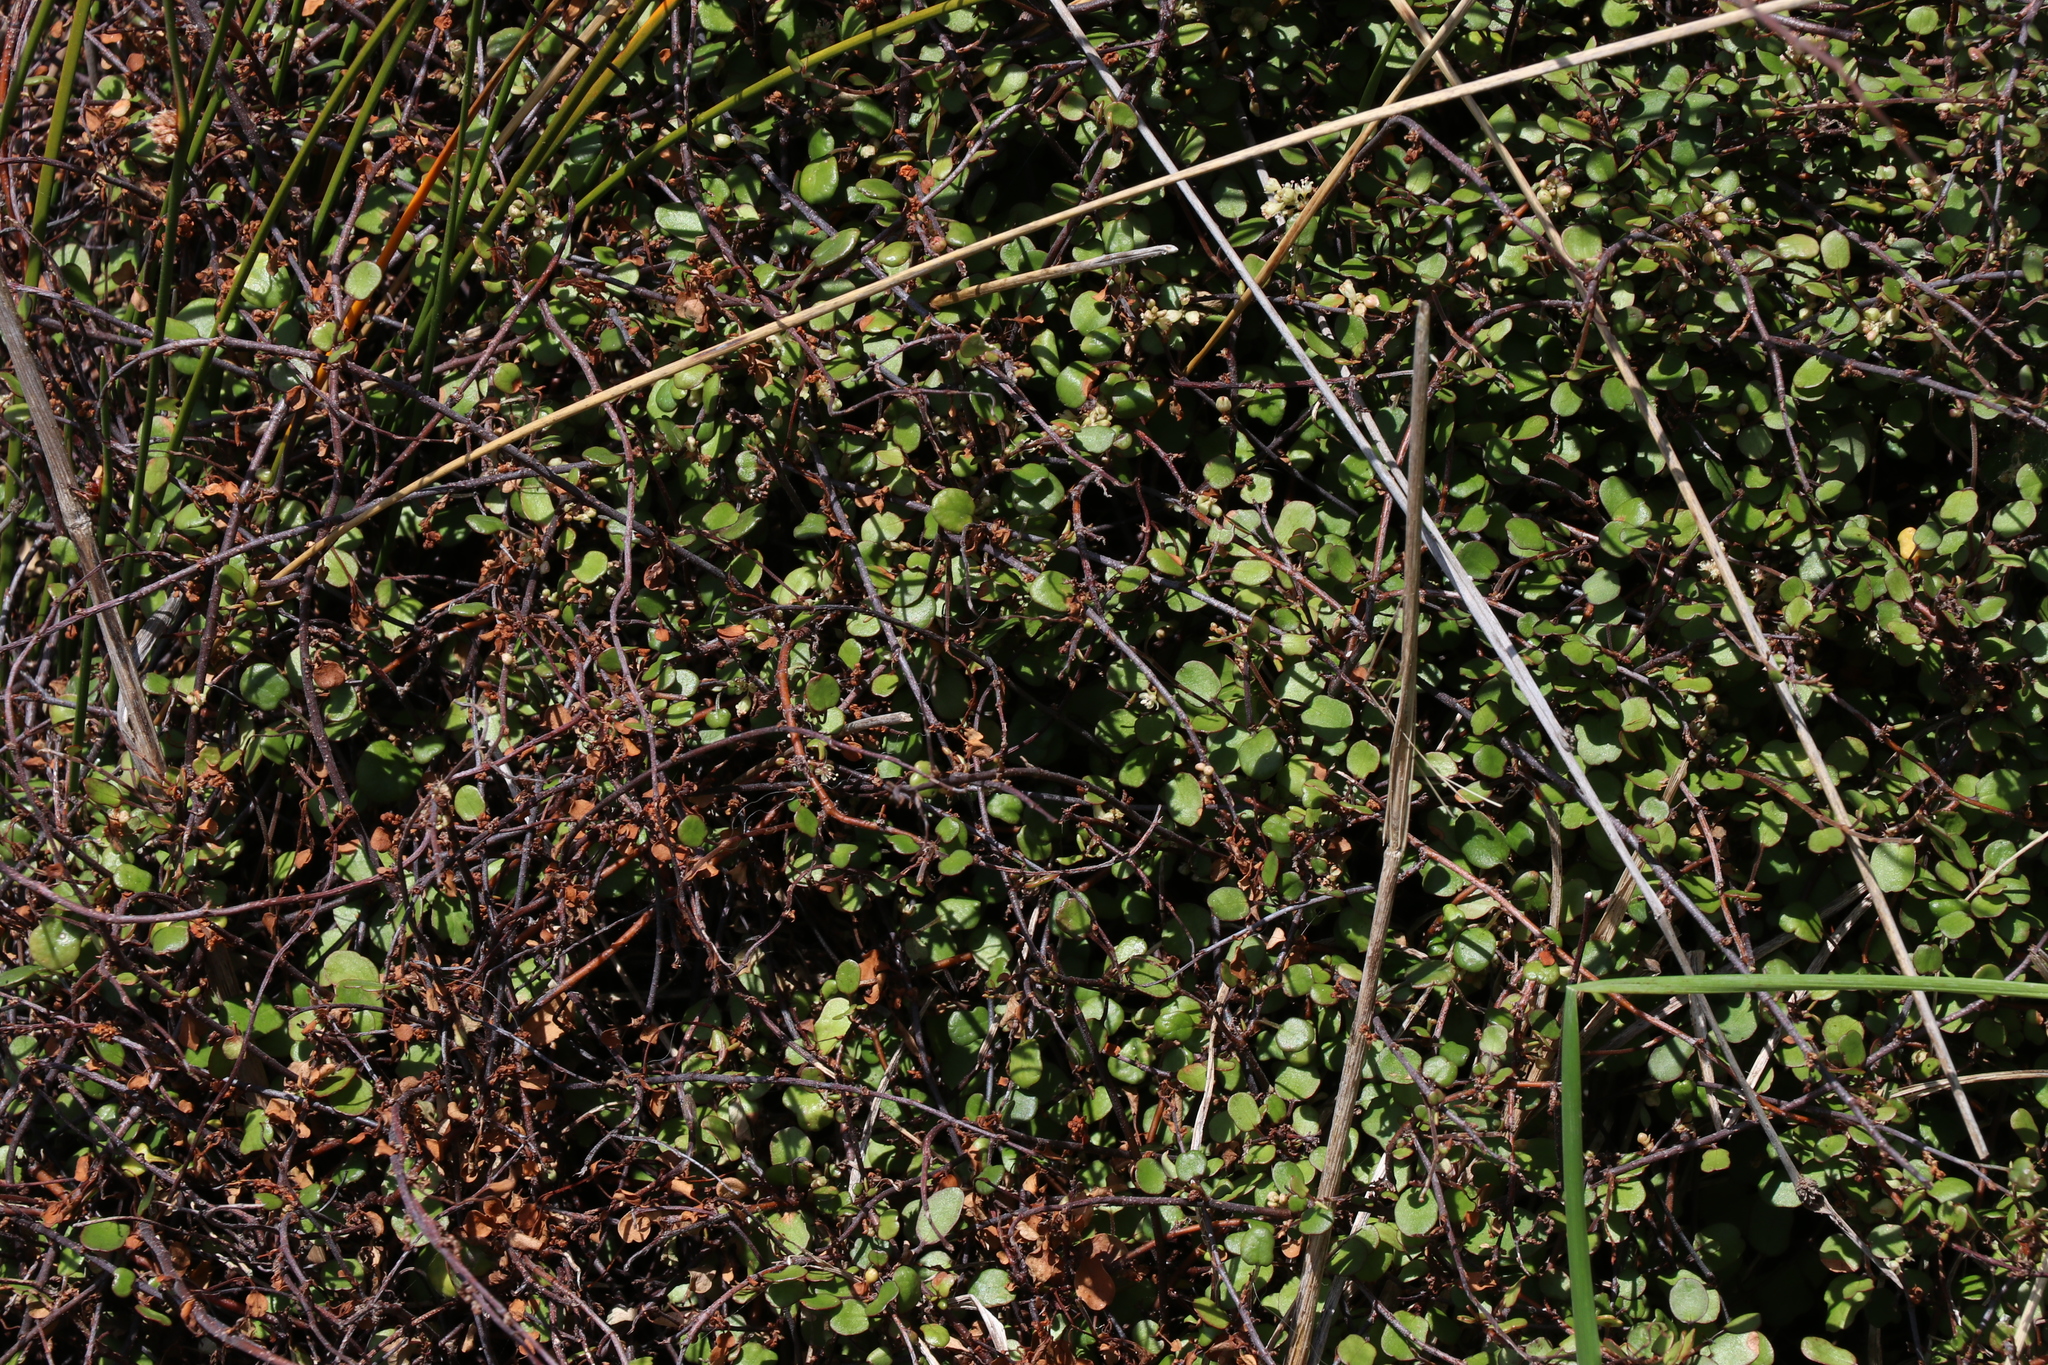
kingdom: Plantae
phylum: Tracheophyta
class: Magnoliopsida
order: Caryophyllales
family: Polygonaceae
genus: Muehlenbeckia
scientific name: Muehlenbeckia complexa
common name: Wireplant
